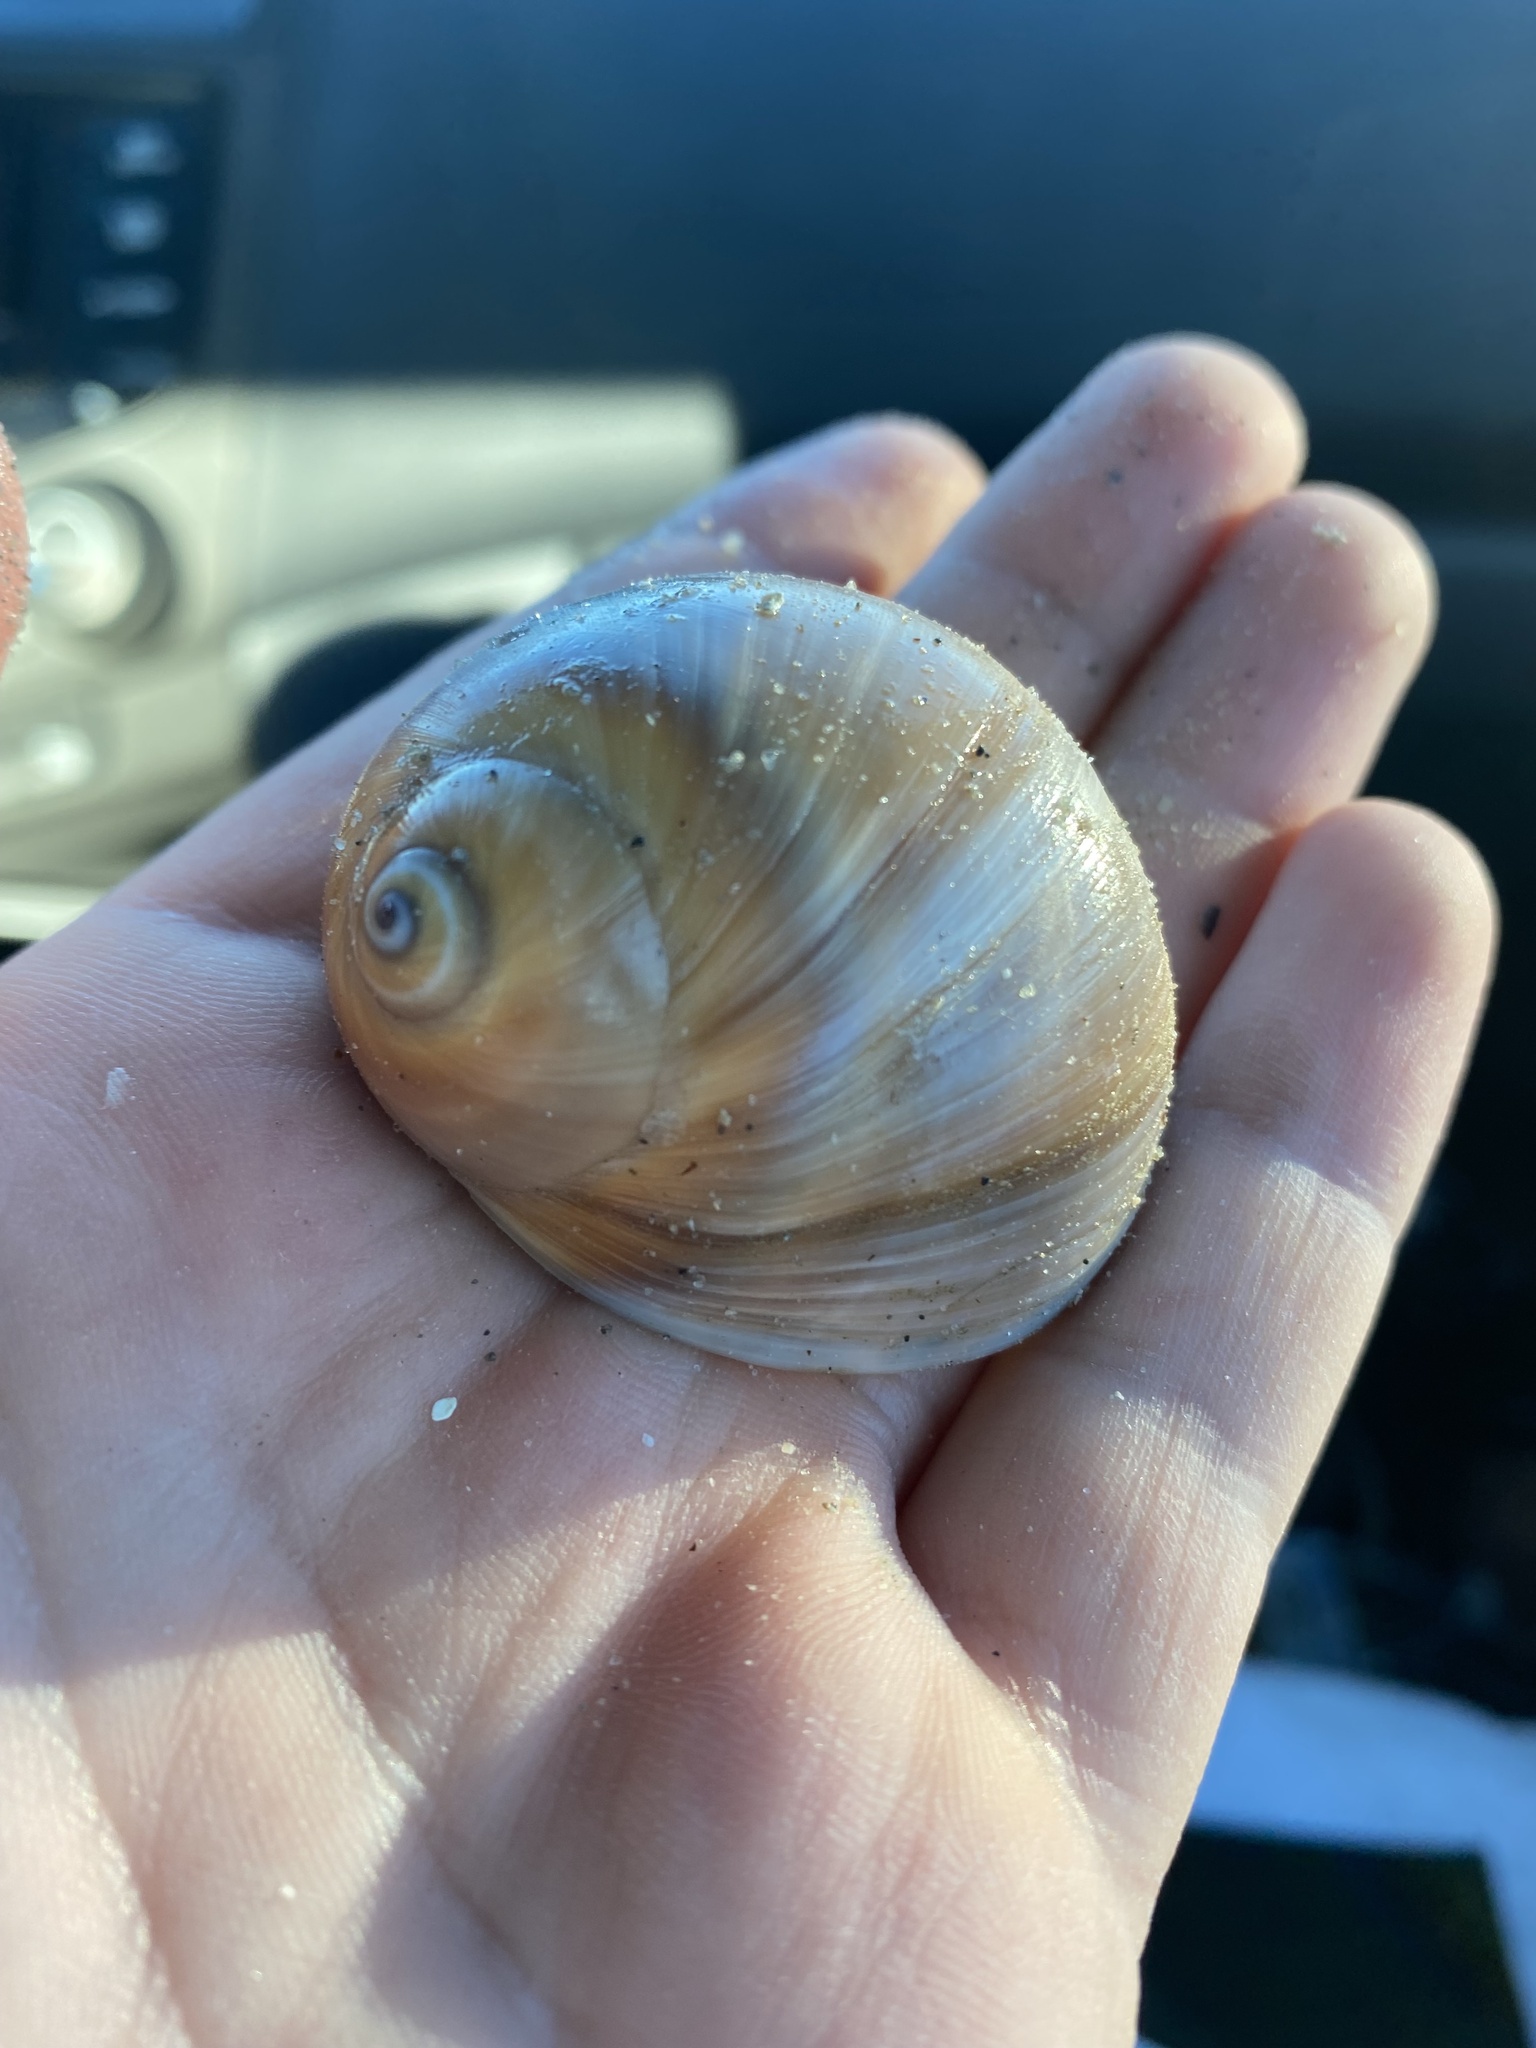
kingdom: Animalia
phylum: Mollusca
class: Gastropoda
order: Littorinimorpha
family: Naticidae
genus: Glossaulax
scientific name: Glossaulax reclusiana
